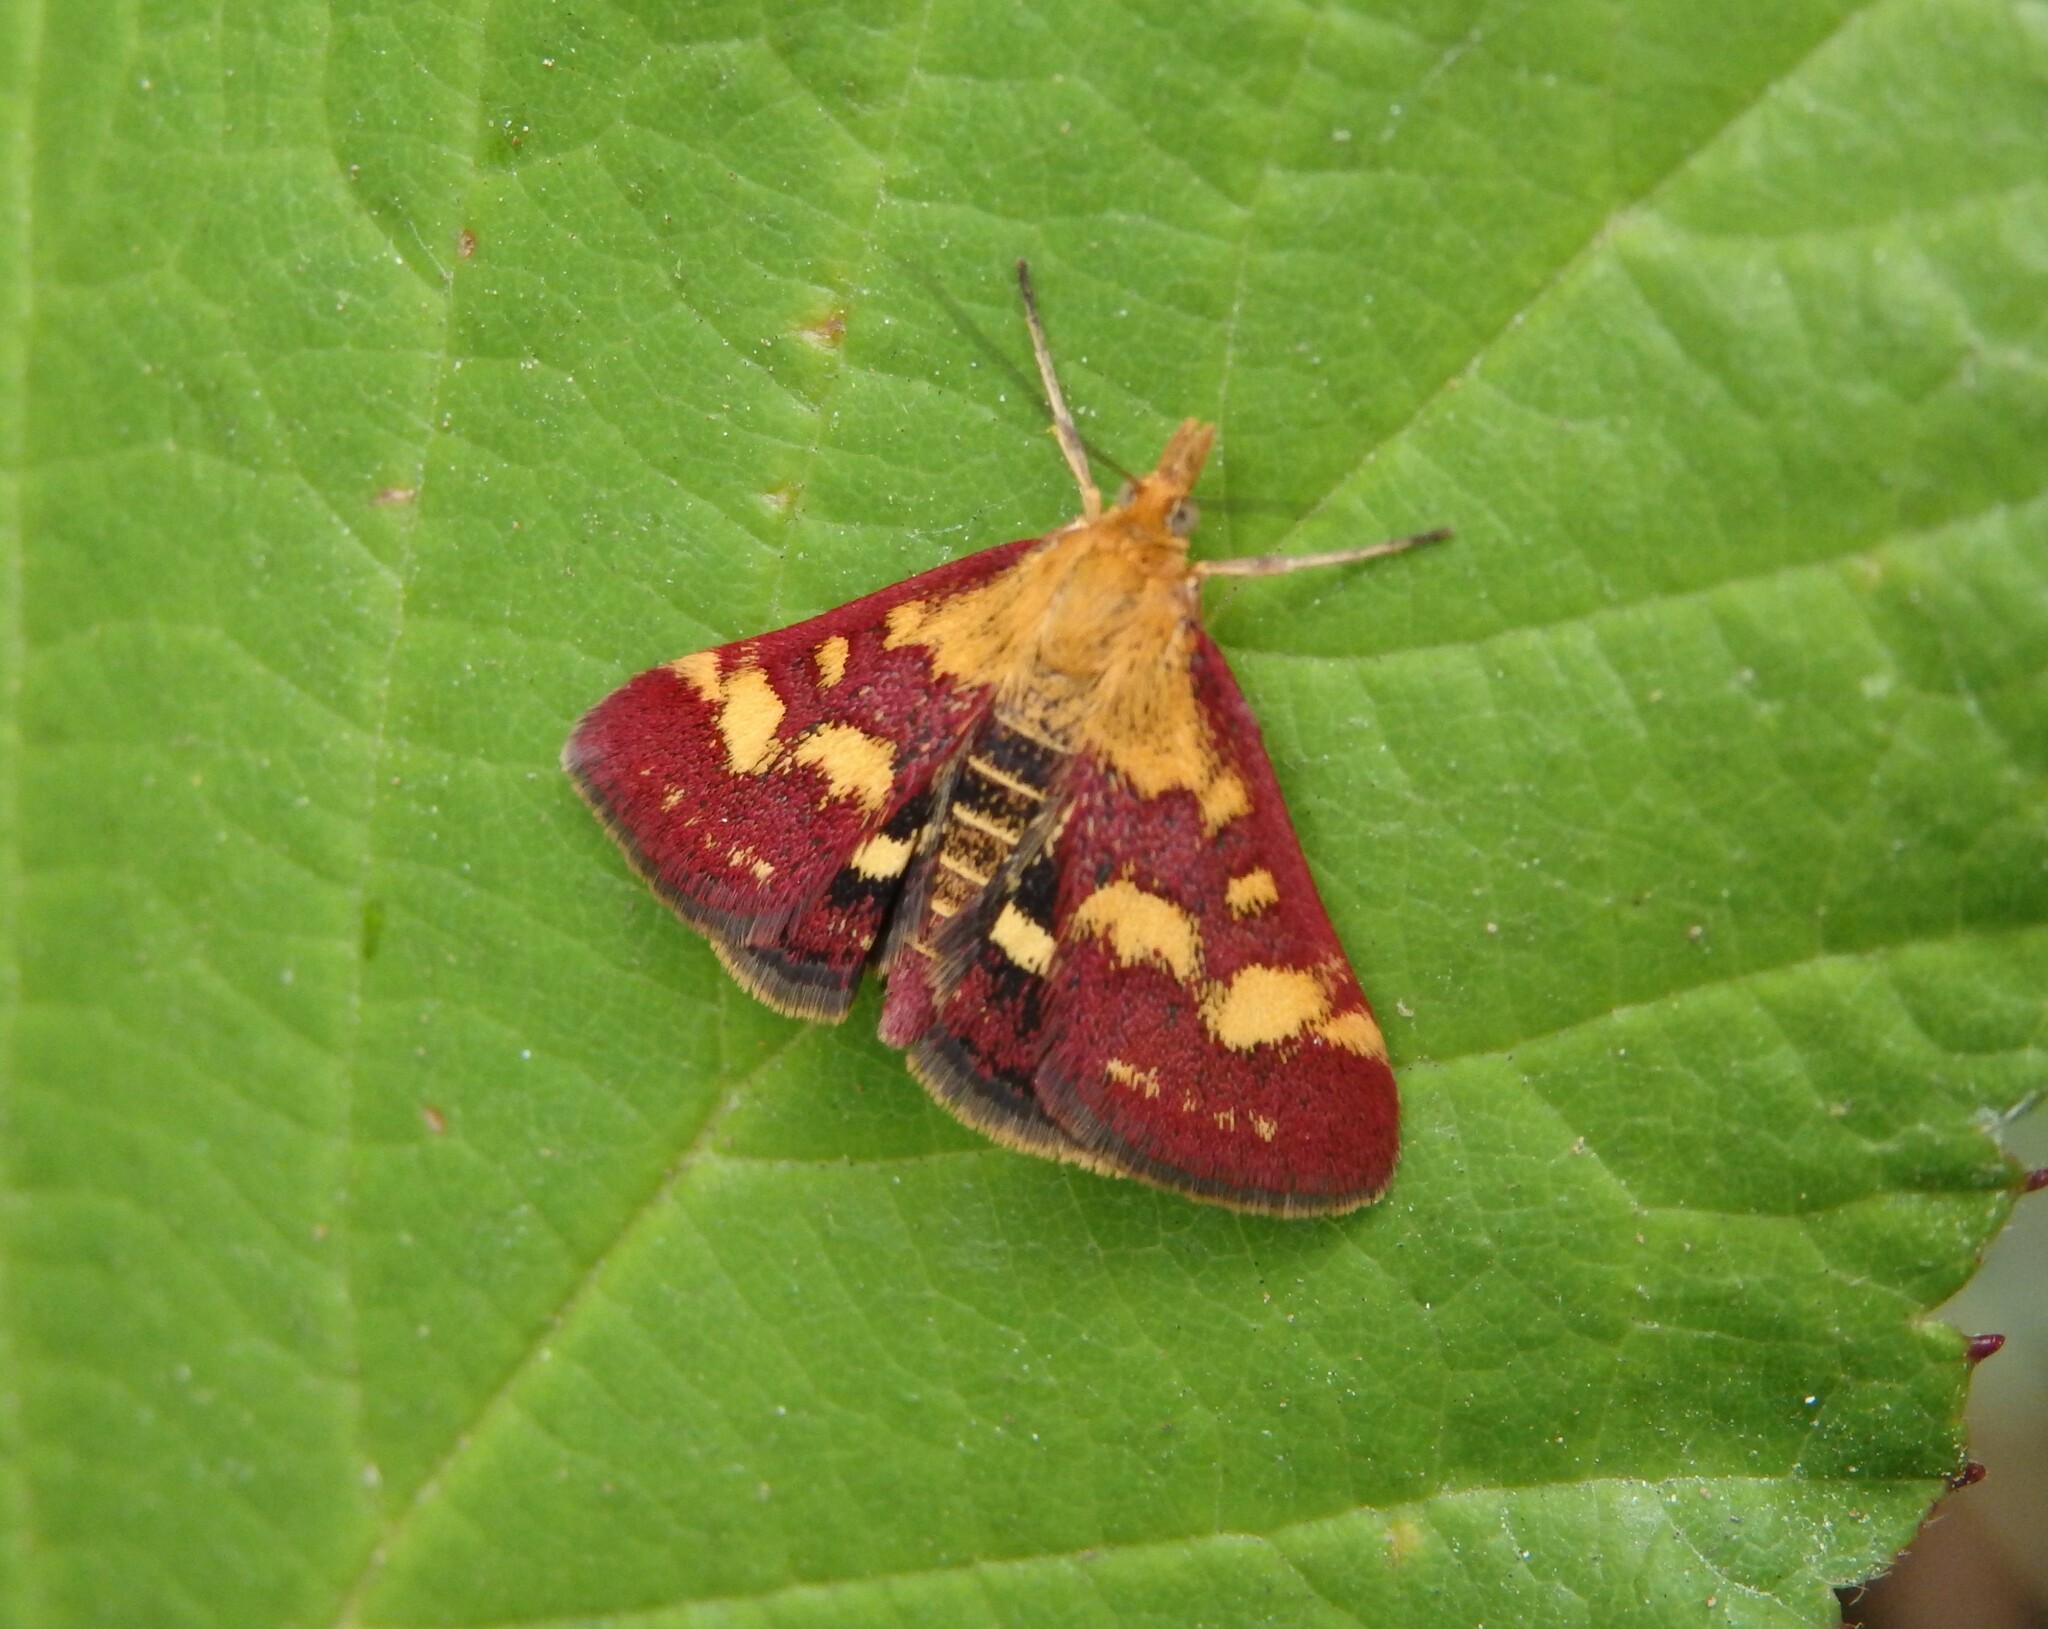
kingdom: Animalia
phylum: Arthropoda
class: Insecta
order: Lepidoptera
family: Crambidae
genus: Pyrausta
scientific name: Pyrausta purpuralis
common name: Common purple & gold
